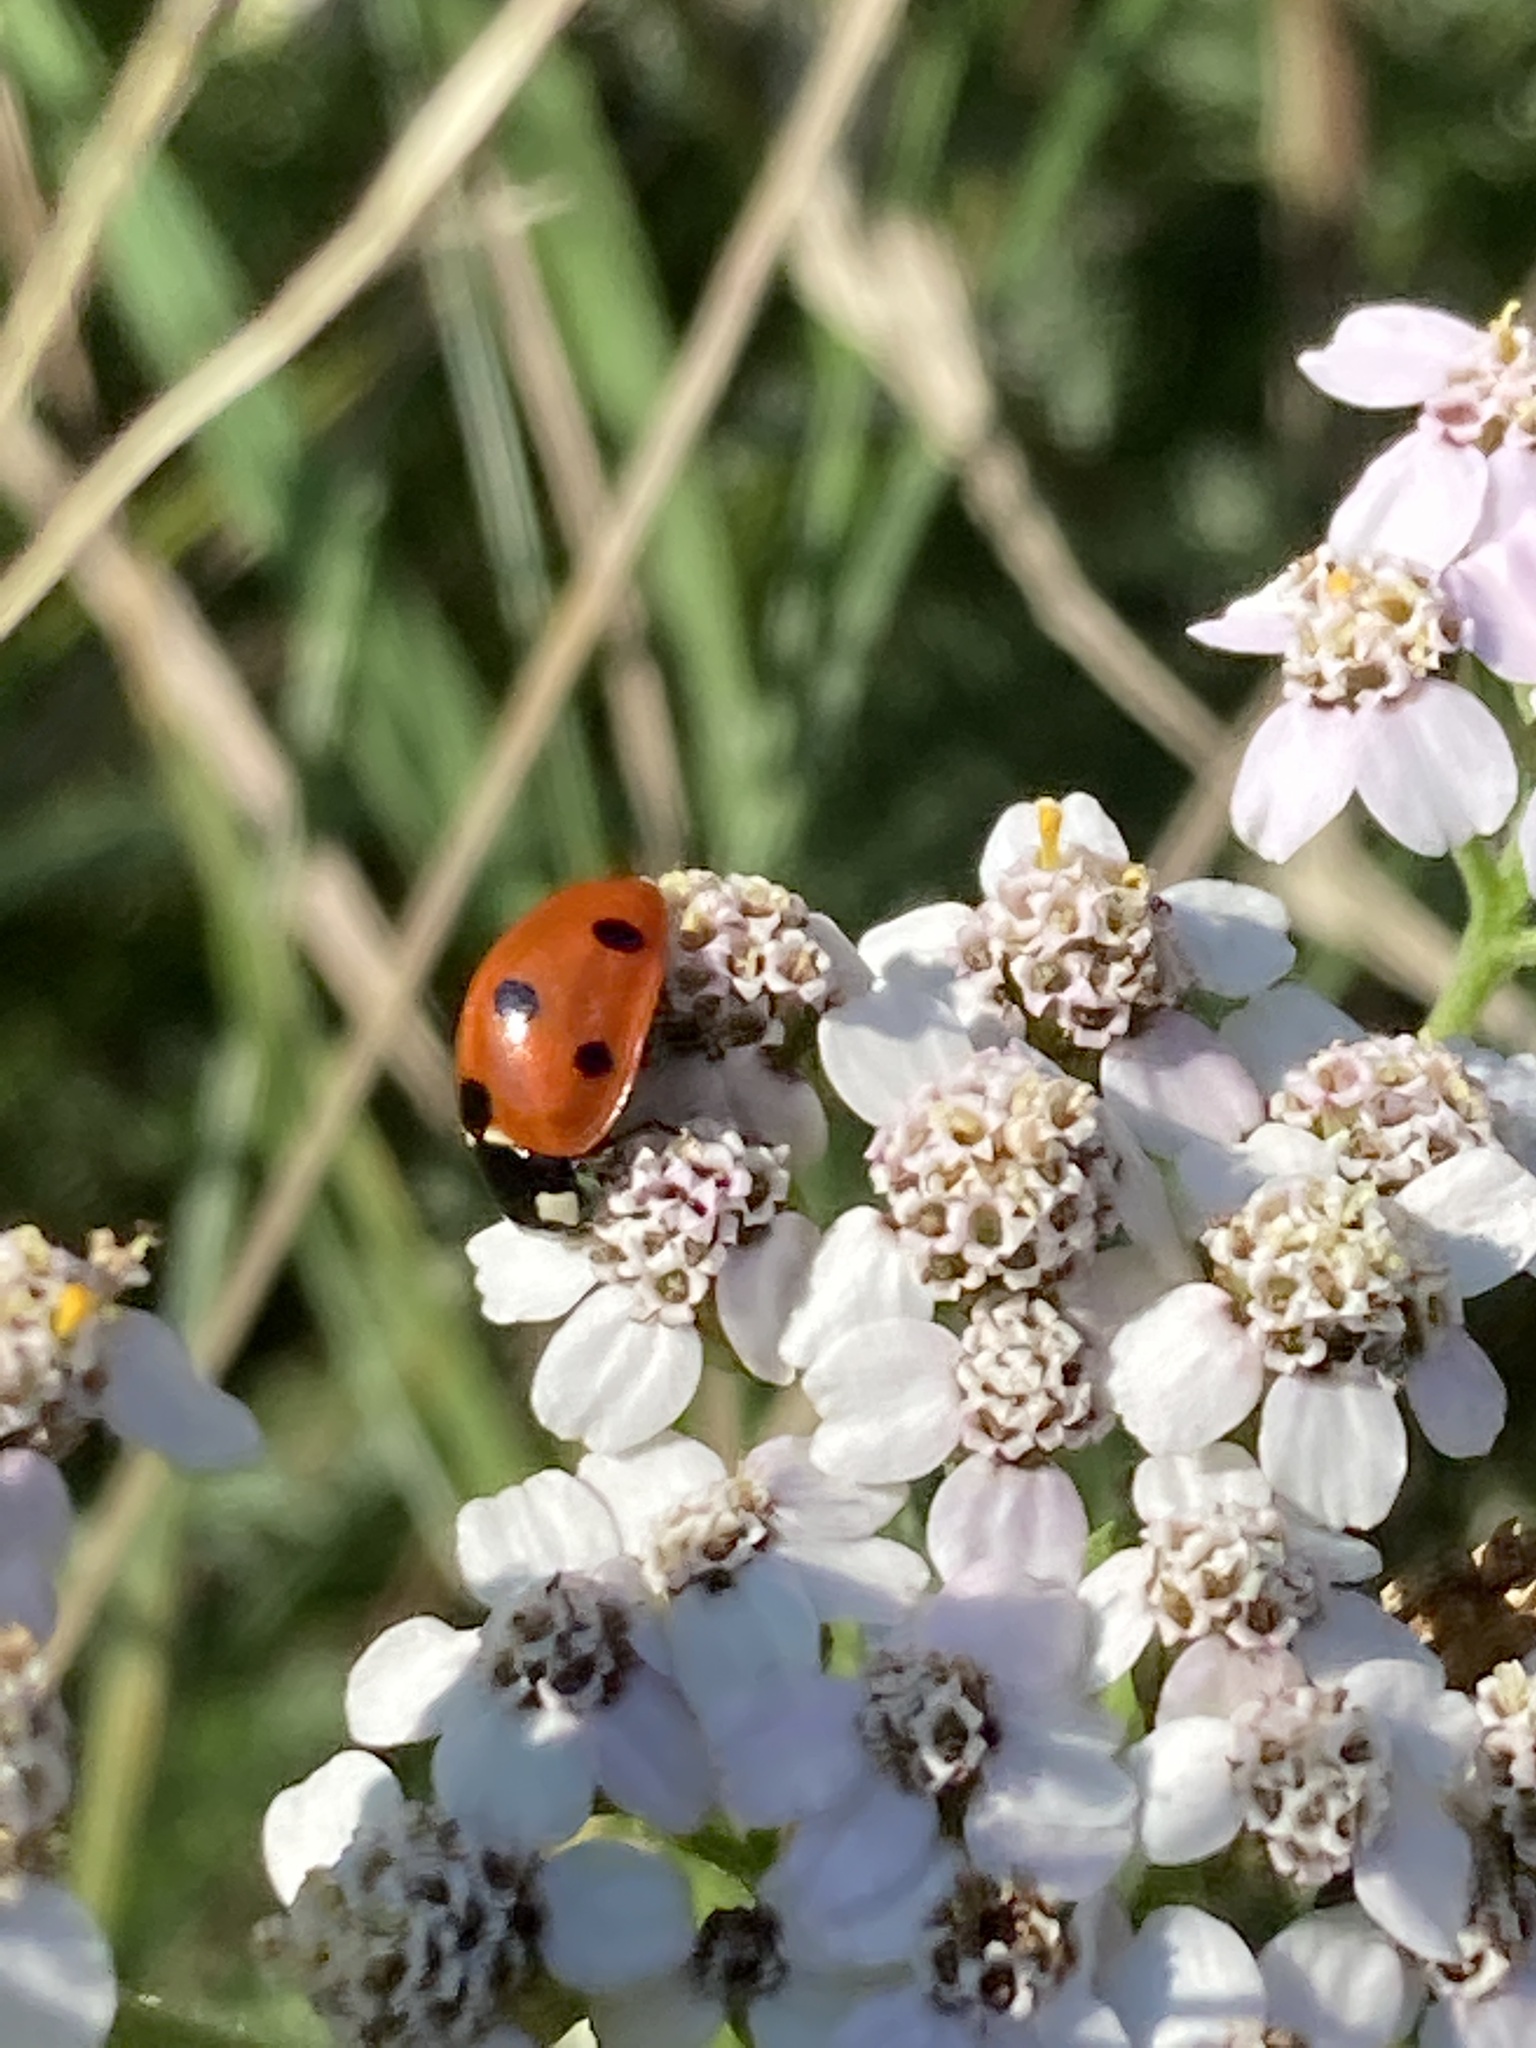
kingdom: Animalia
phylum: Arthropoda
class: Insecta
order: Coleoptera
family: Coccinellidae
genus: Coccinella
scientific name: Coccinella septempunctata
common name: Sevenspotted lady beetle
